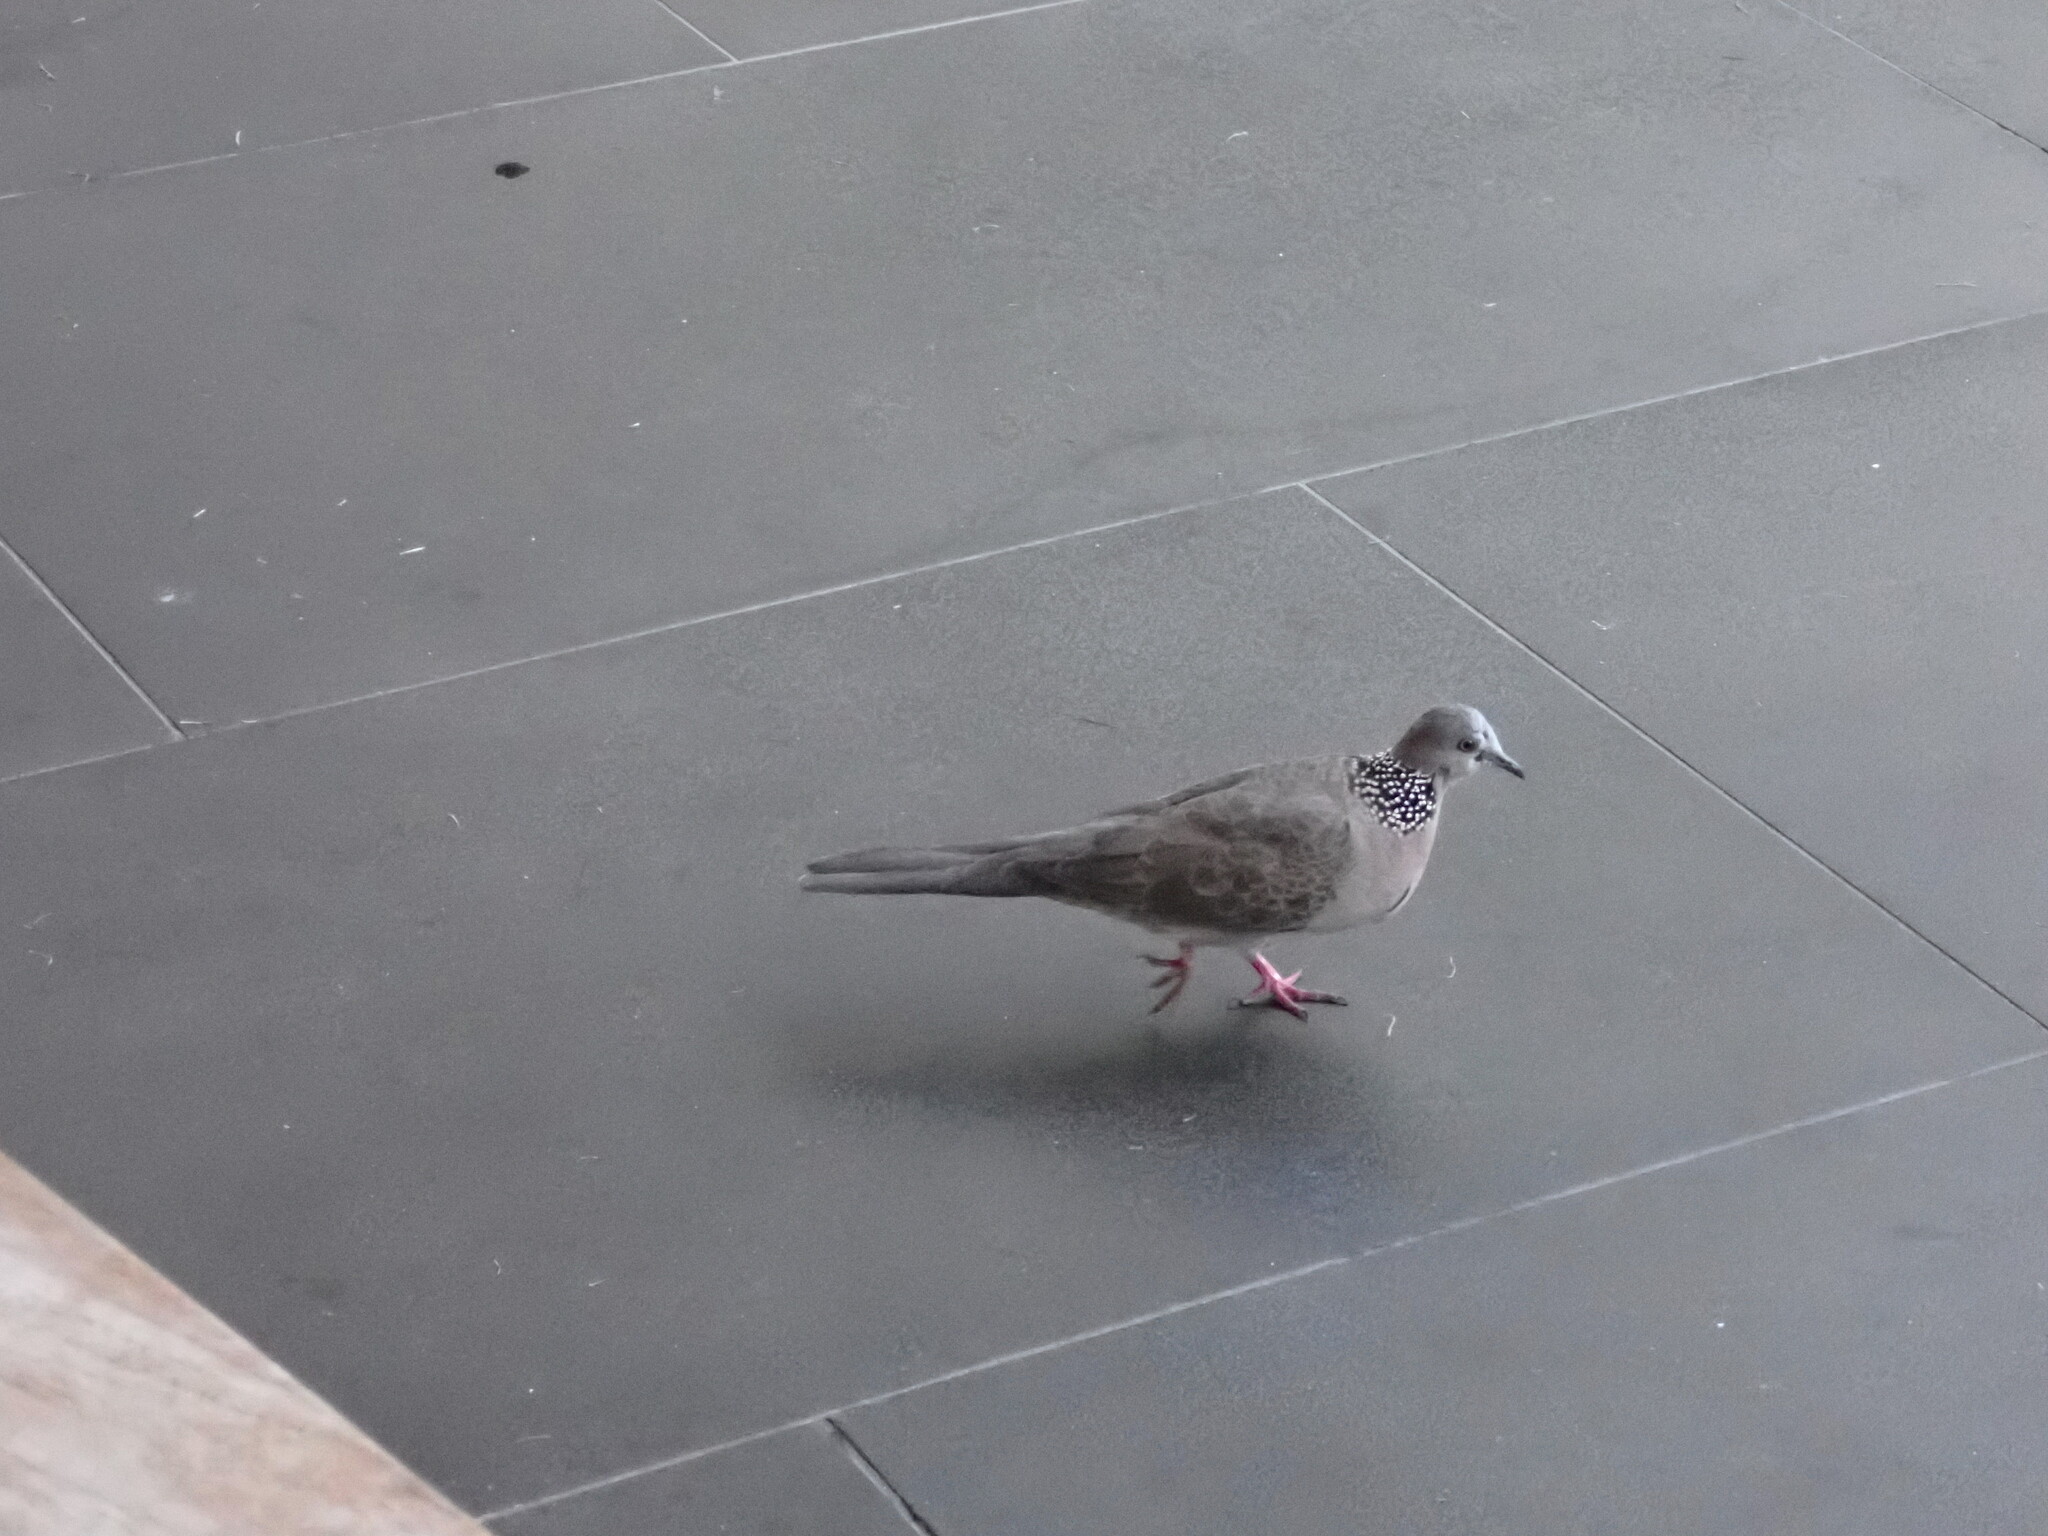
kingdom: Animalia
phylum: Chordata
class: Aves
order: Columbiformes
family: Columbidae
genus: Spilopelia
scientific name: Spilopelia chinensis
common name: Spotted dove
